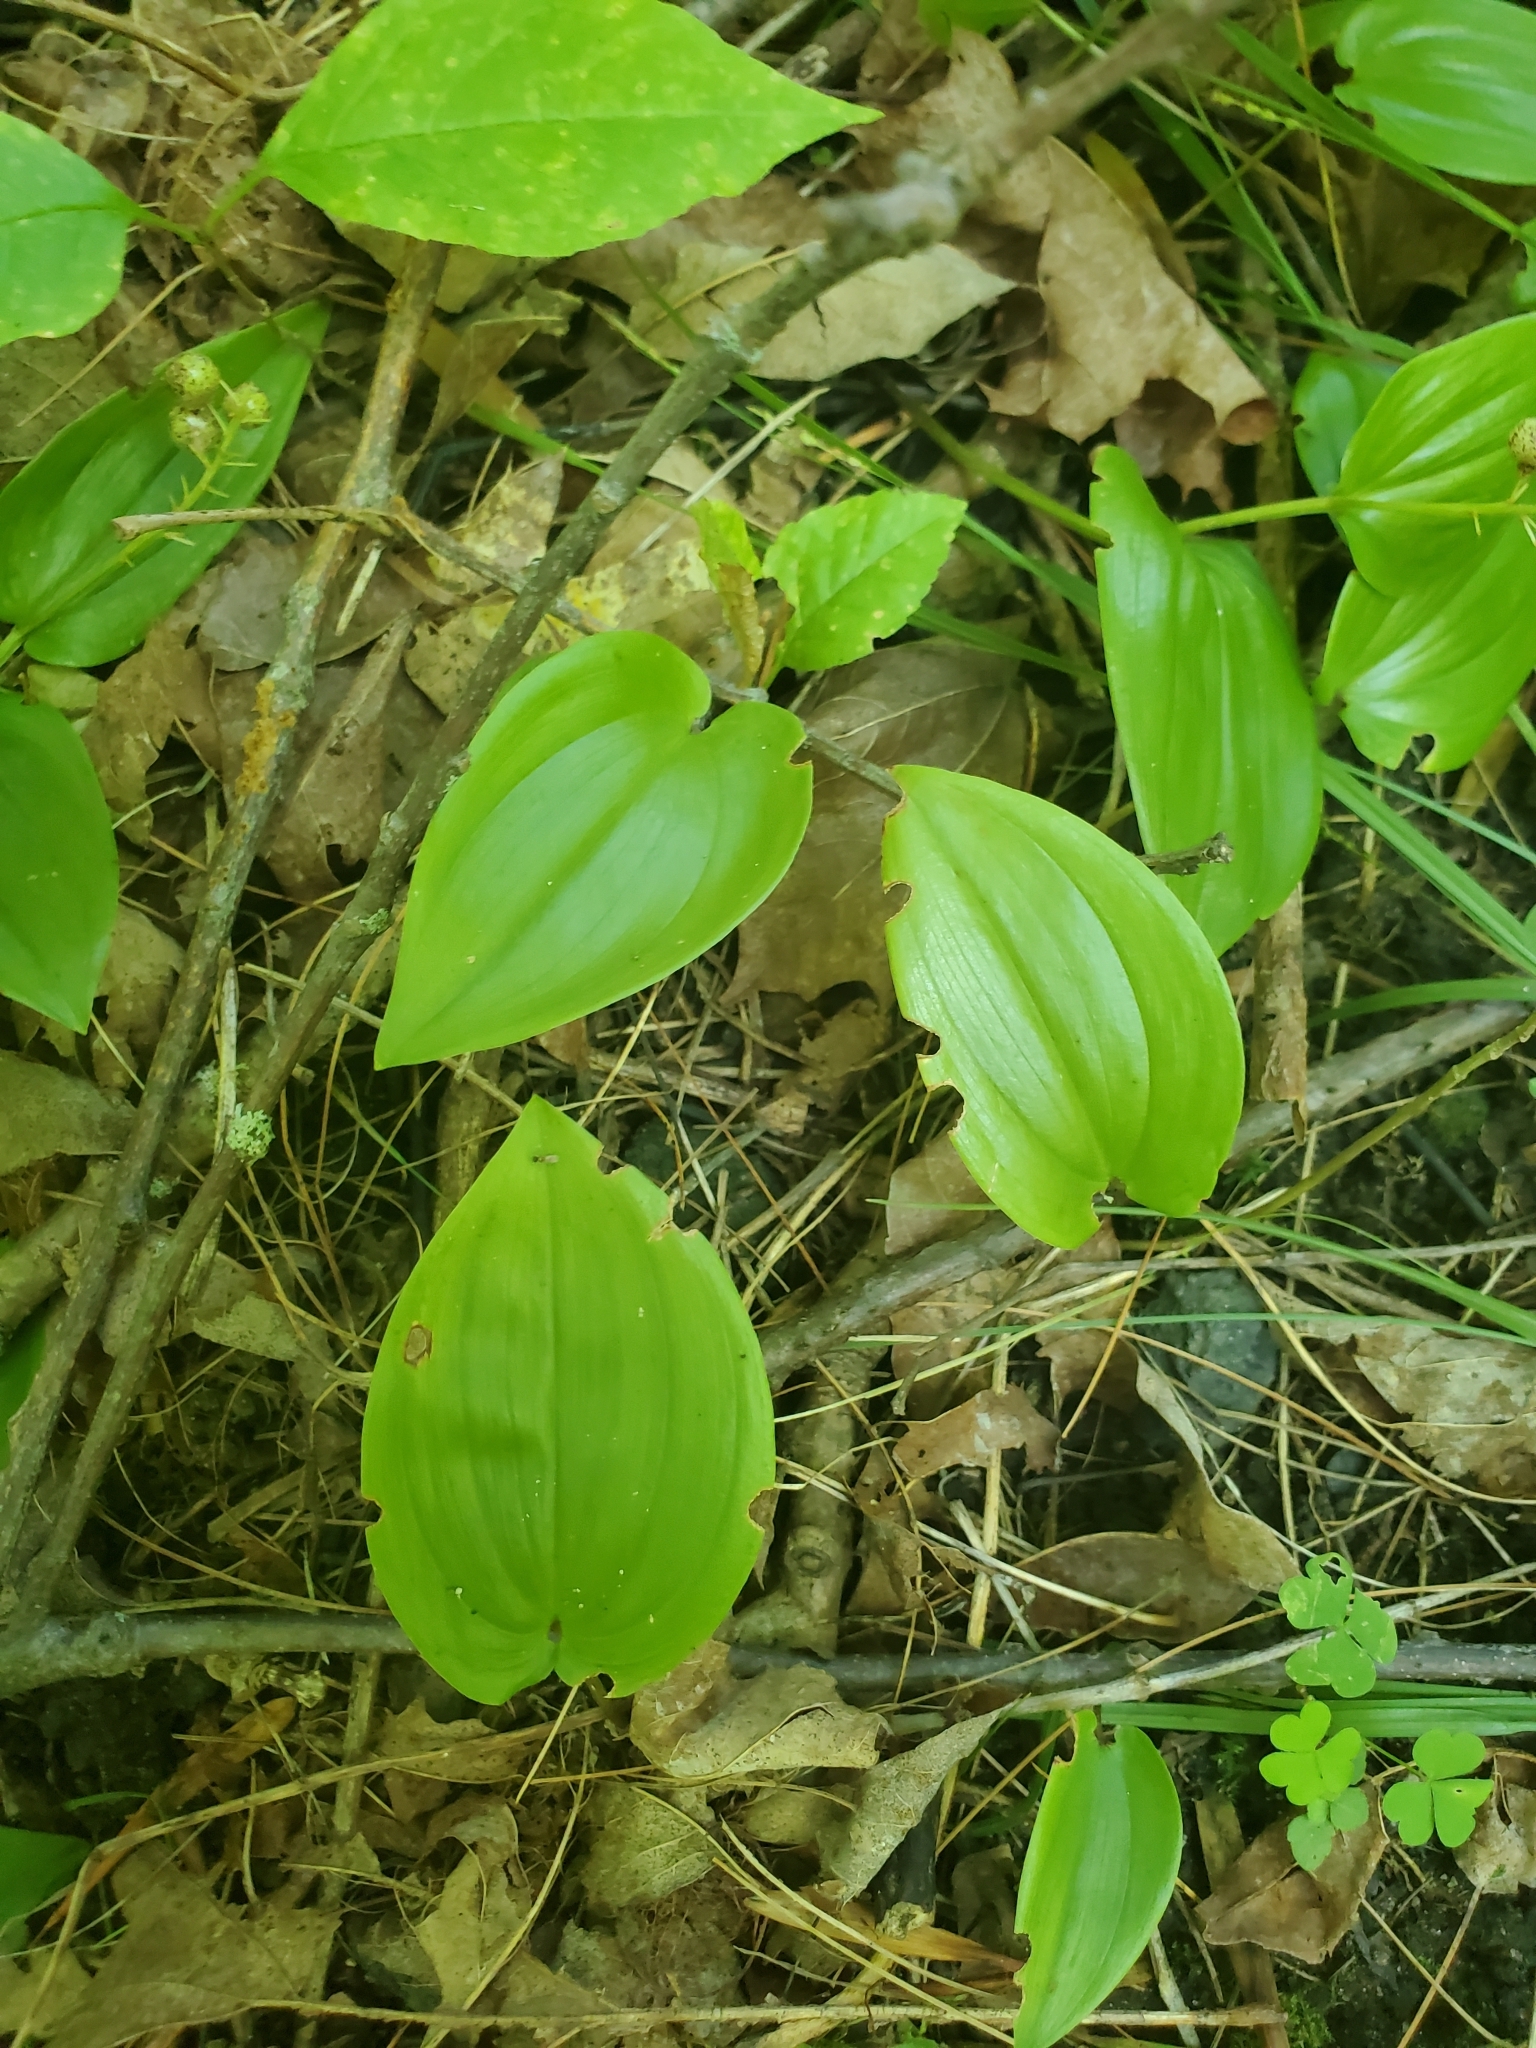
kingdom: Plantae
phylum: Tracheophyta
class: Liliopsida
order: Asparagales
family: Asparagaceae
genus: Maianthemum
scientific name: Maianthemum canadense
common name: False lily-of-the-valley
